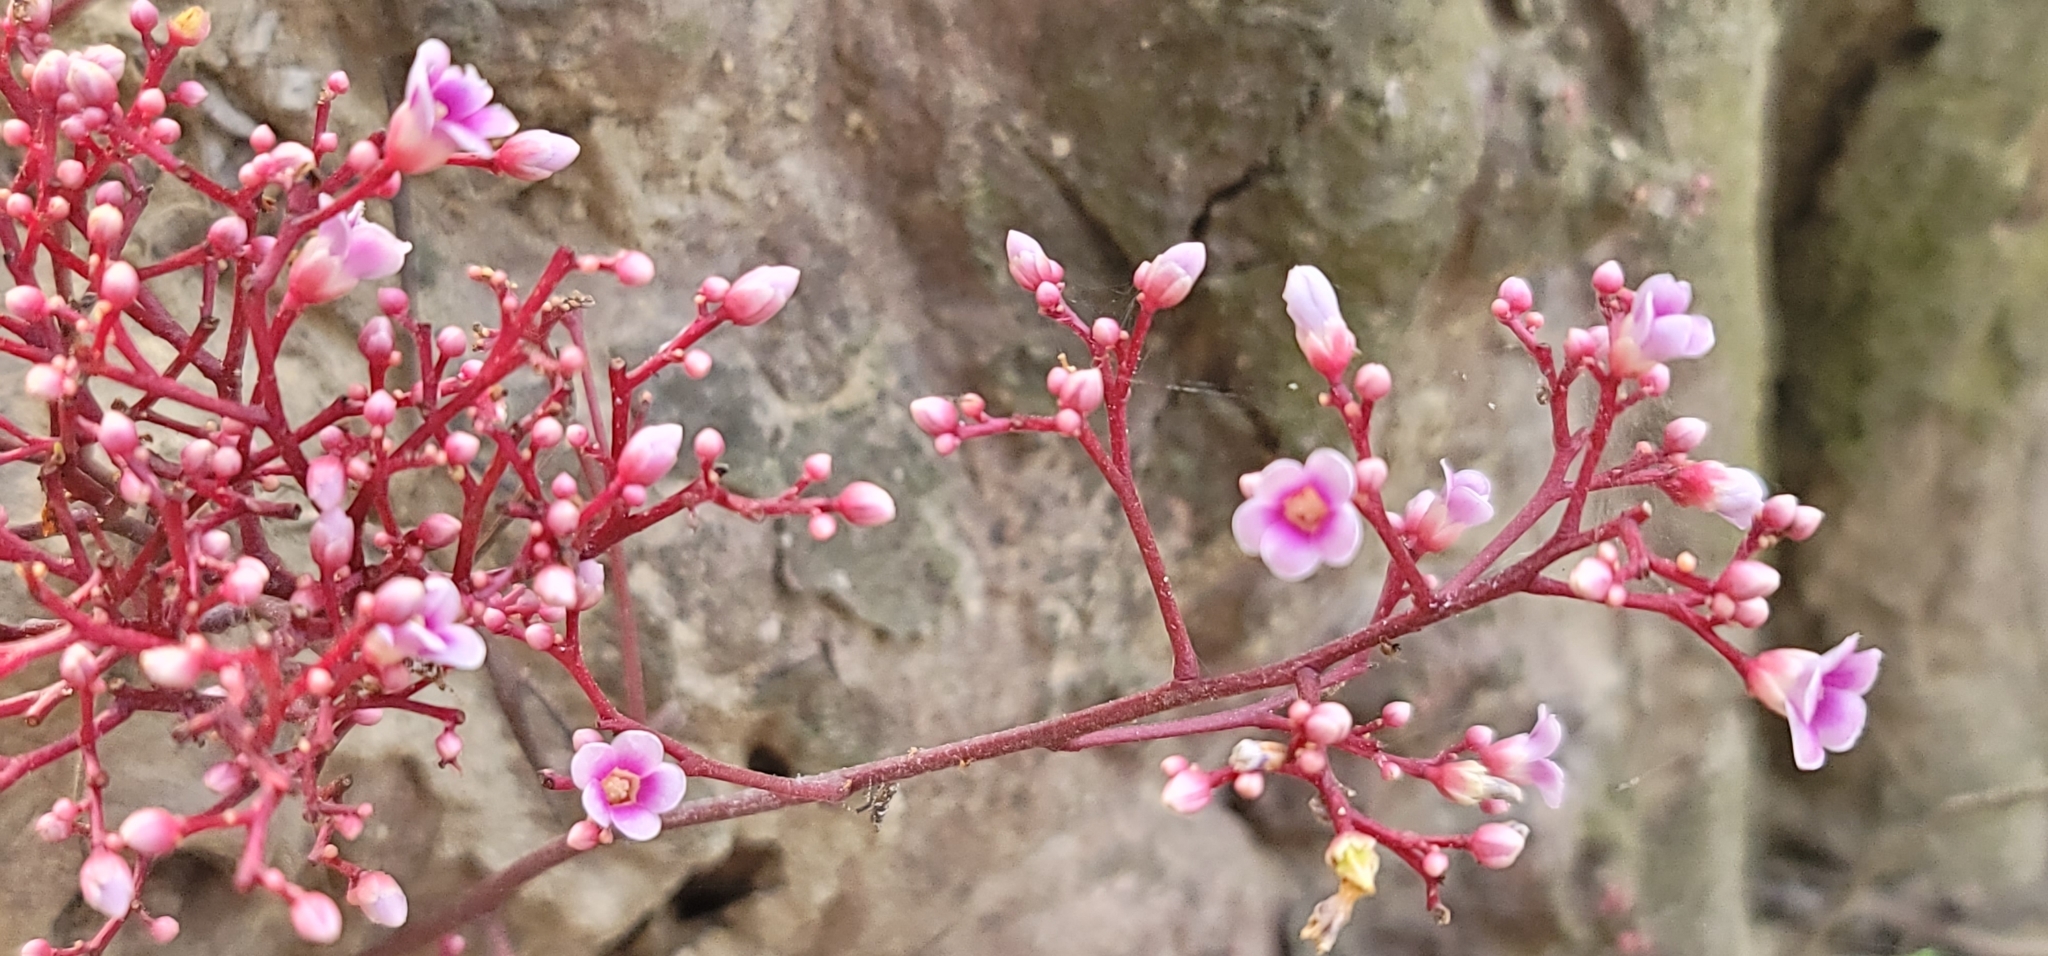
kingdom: Plantae
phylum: Tracheophyta
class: Magnoliopsida
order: Oxalidales
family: Oxalidaceae
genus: Averrhoa
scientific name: Averrhoa carambola
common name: Blimbing
